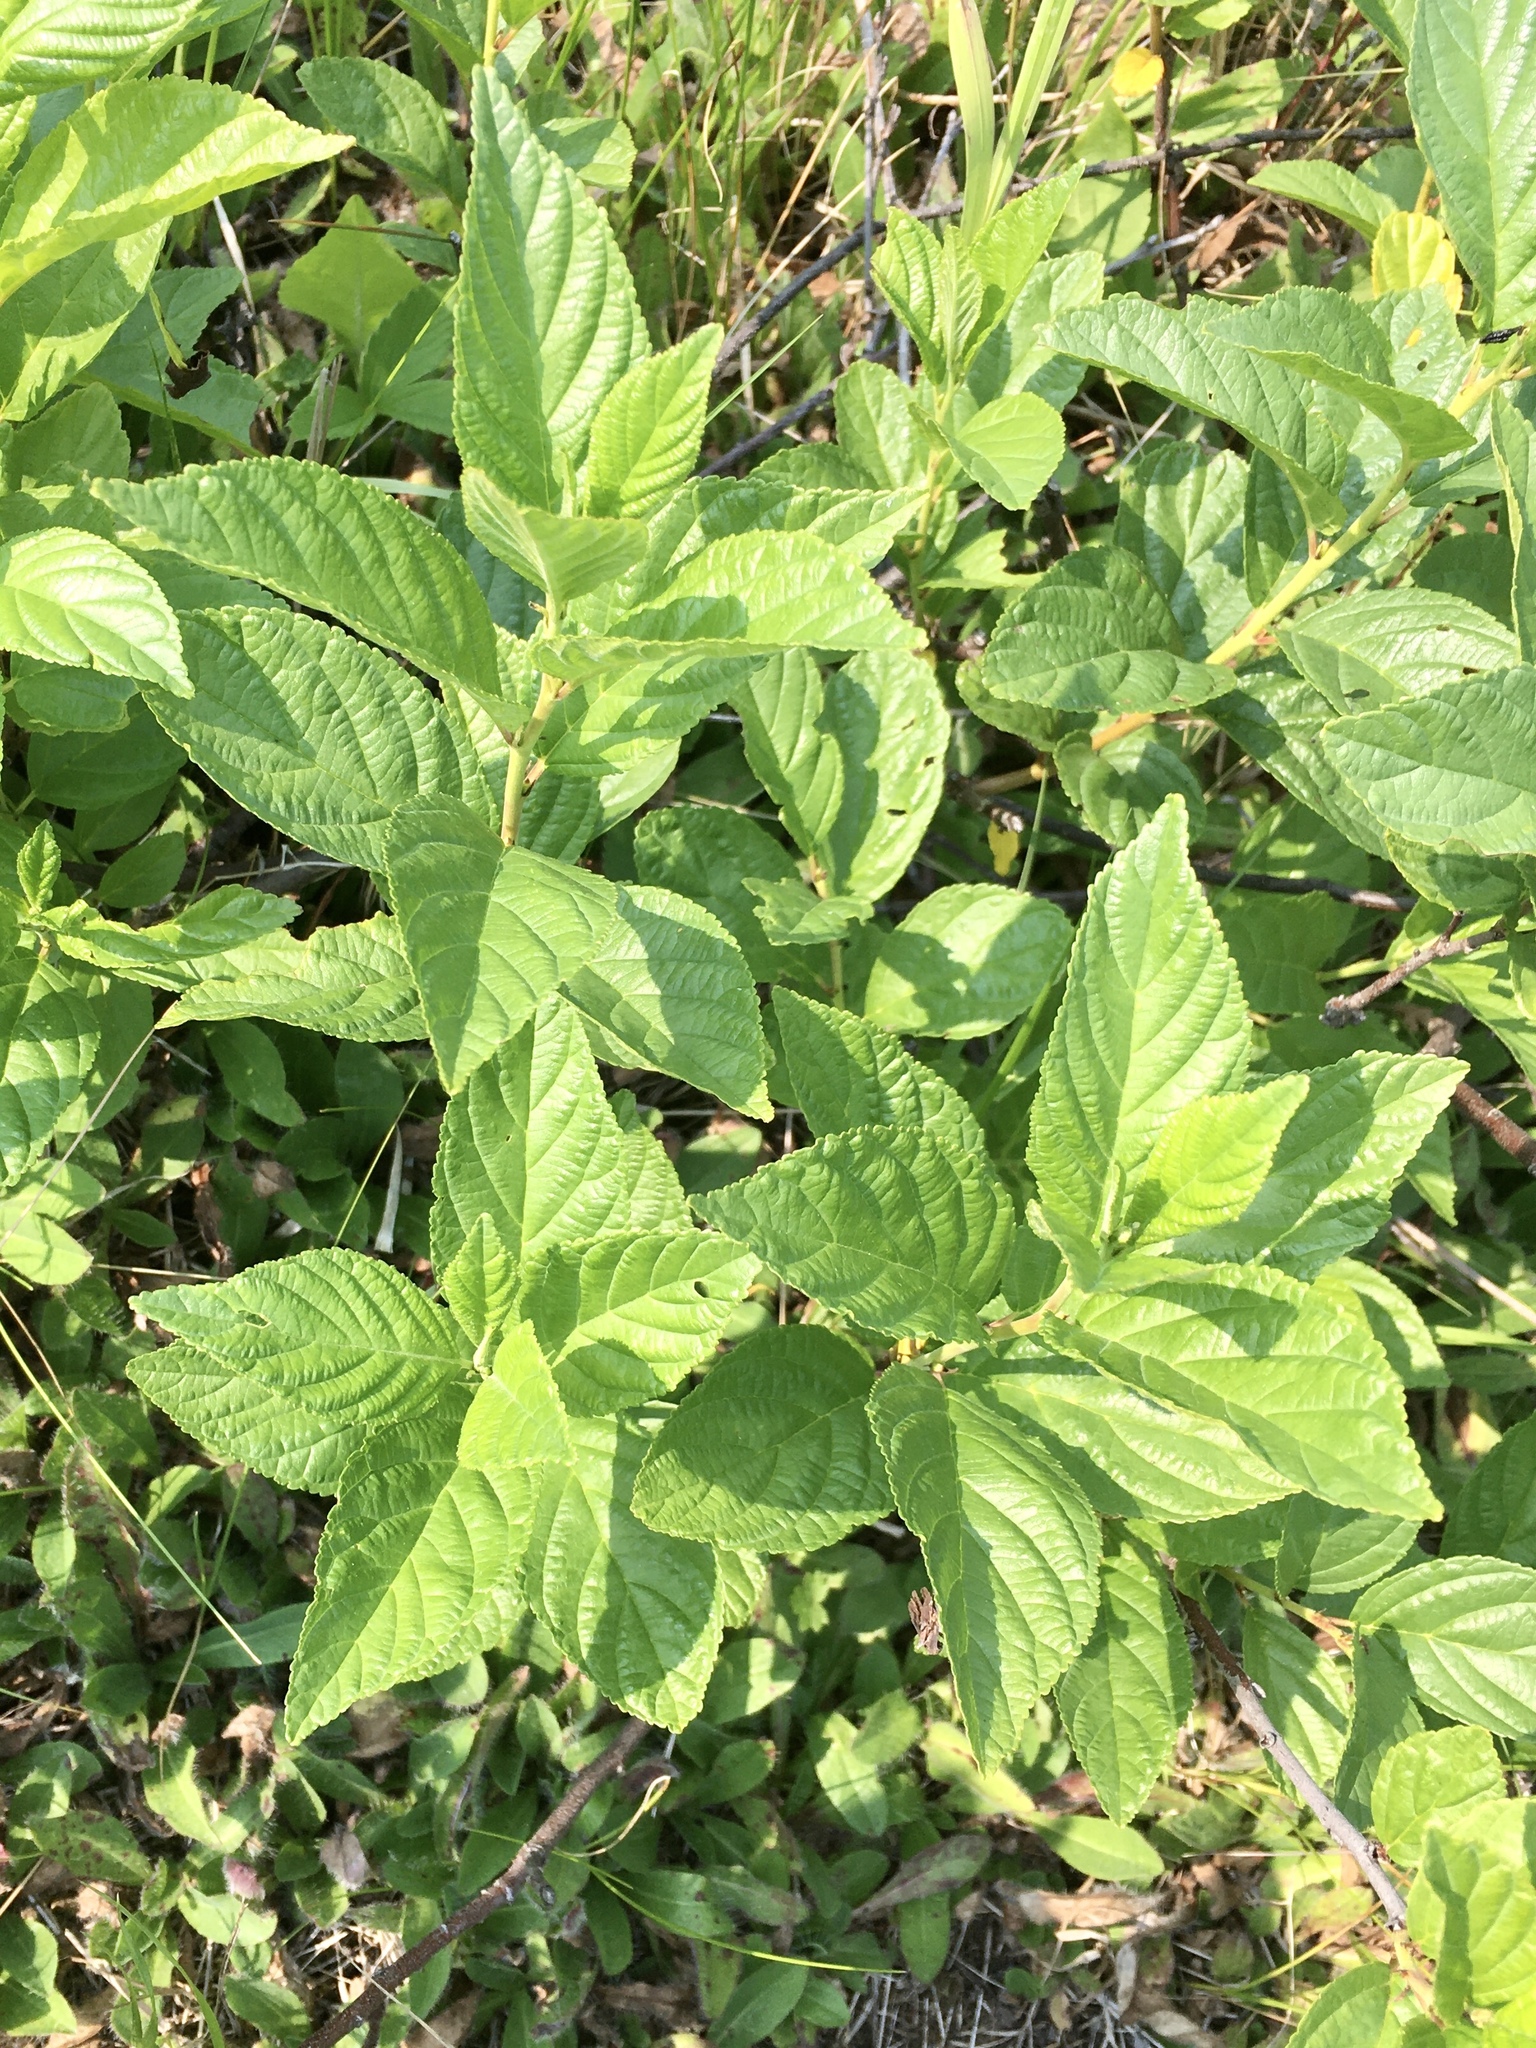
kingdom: Plantae
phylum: Tracheophyta
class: Magnoliopsida
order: Rosales
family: Rhamnaceae
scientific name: Rhamnaceae
